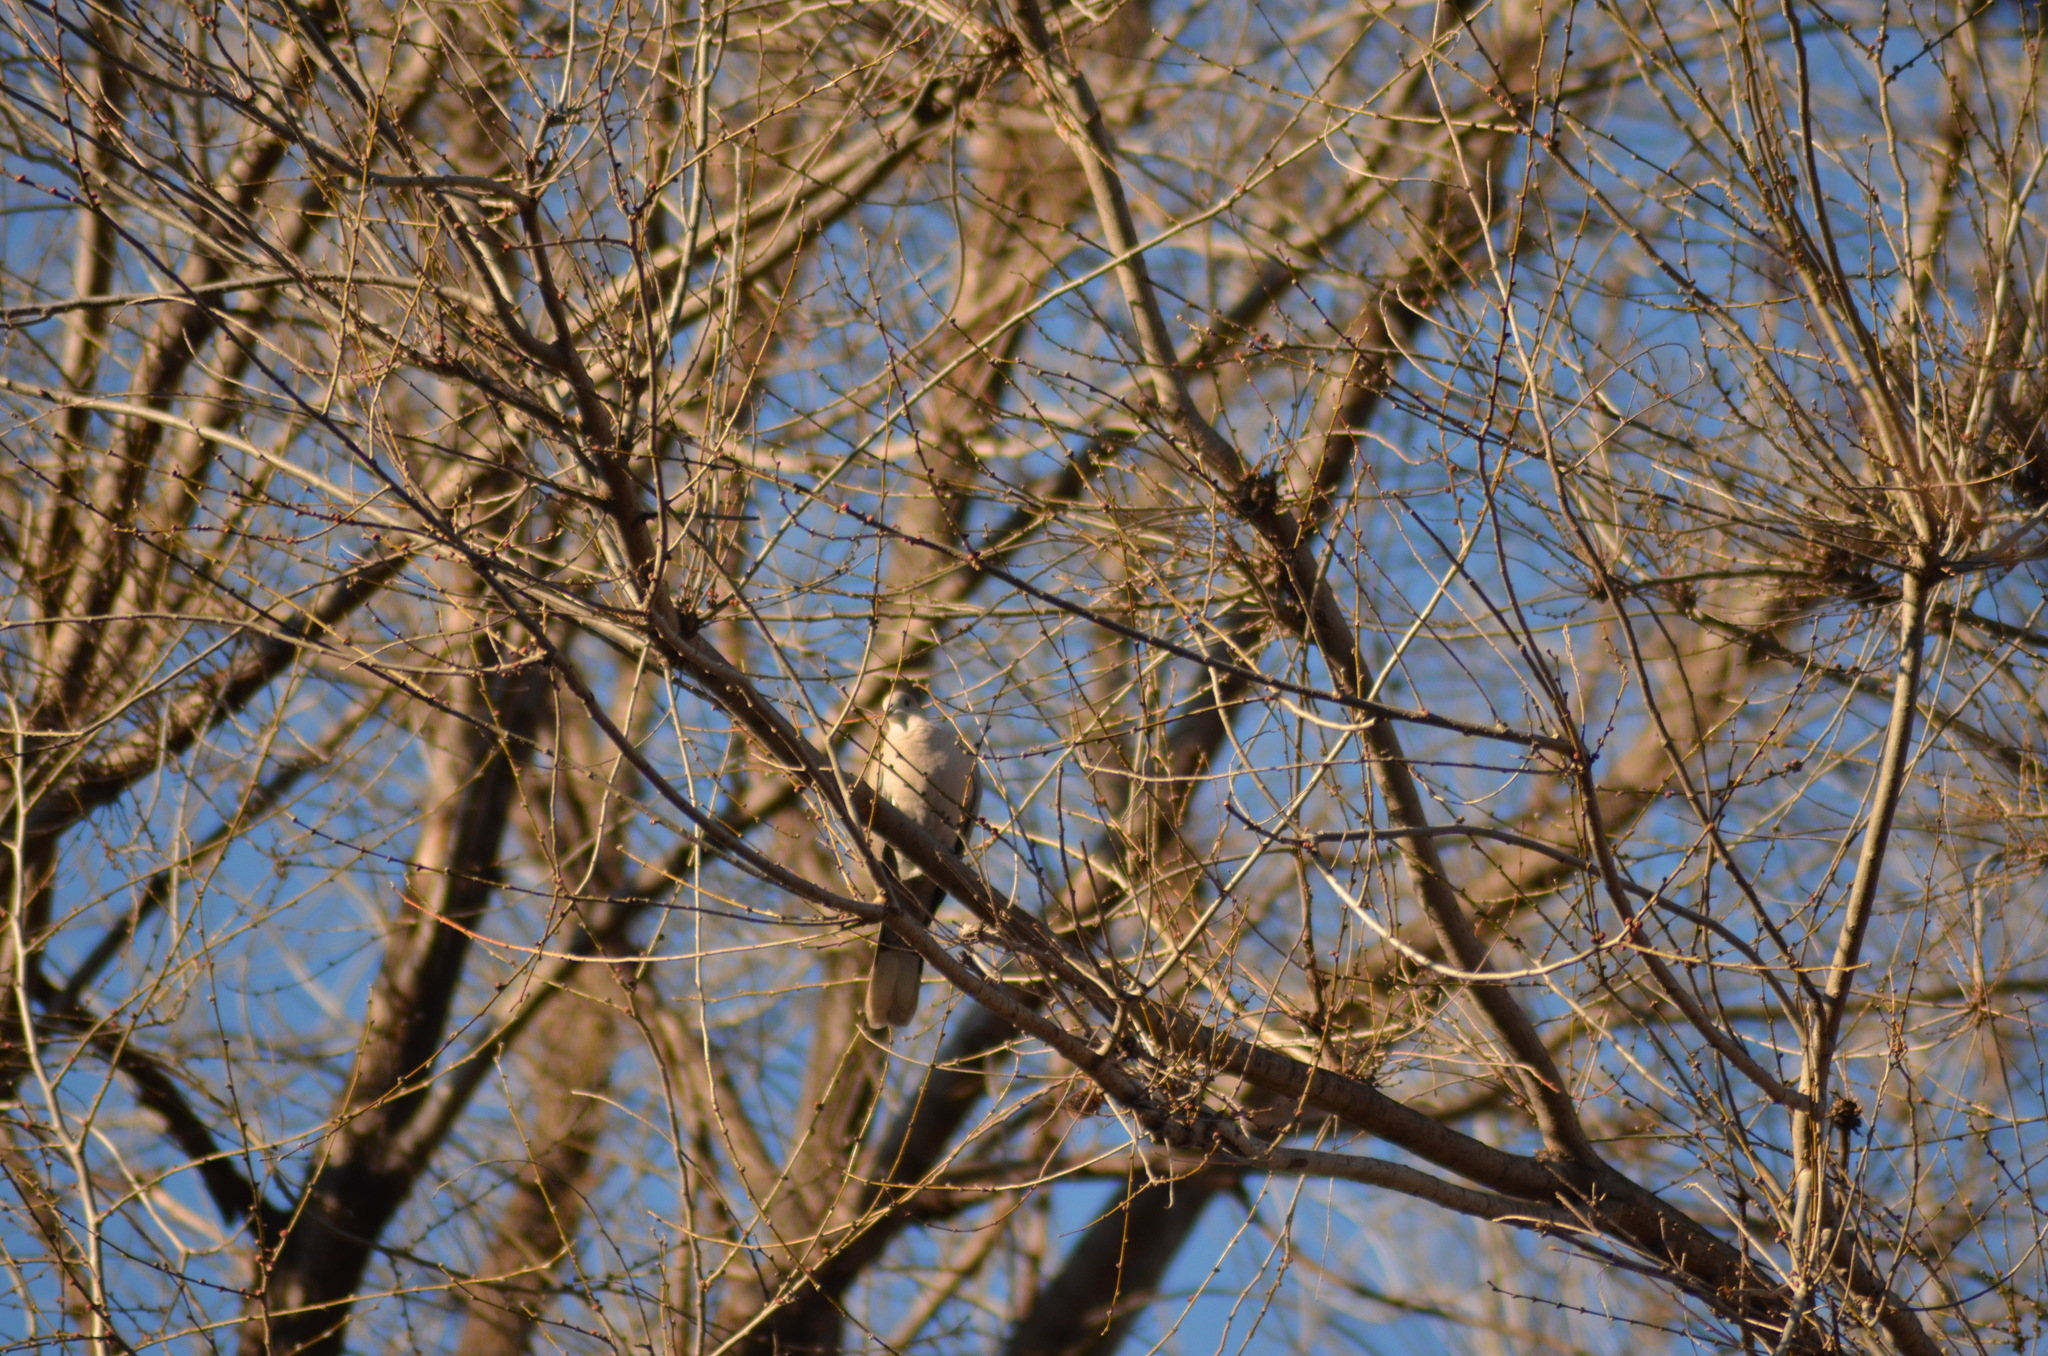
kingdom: Animalia
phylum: Chordata
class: Aves
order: Columbiformes
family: Columbidae
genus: Streptopelia
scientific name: Streptopelia decaocto
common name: Eurasian collared dove
